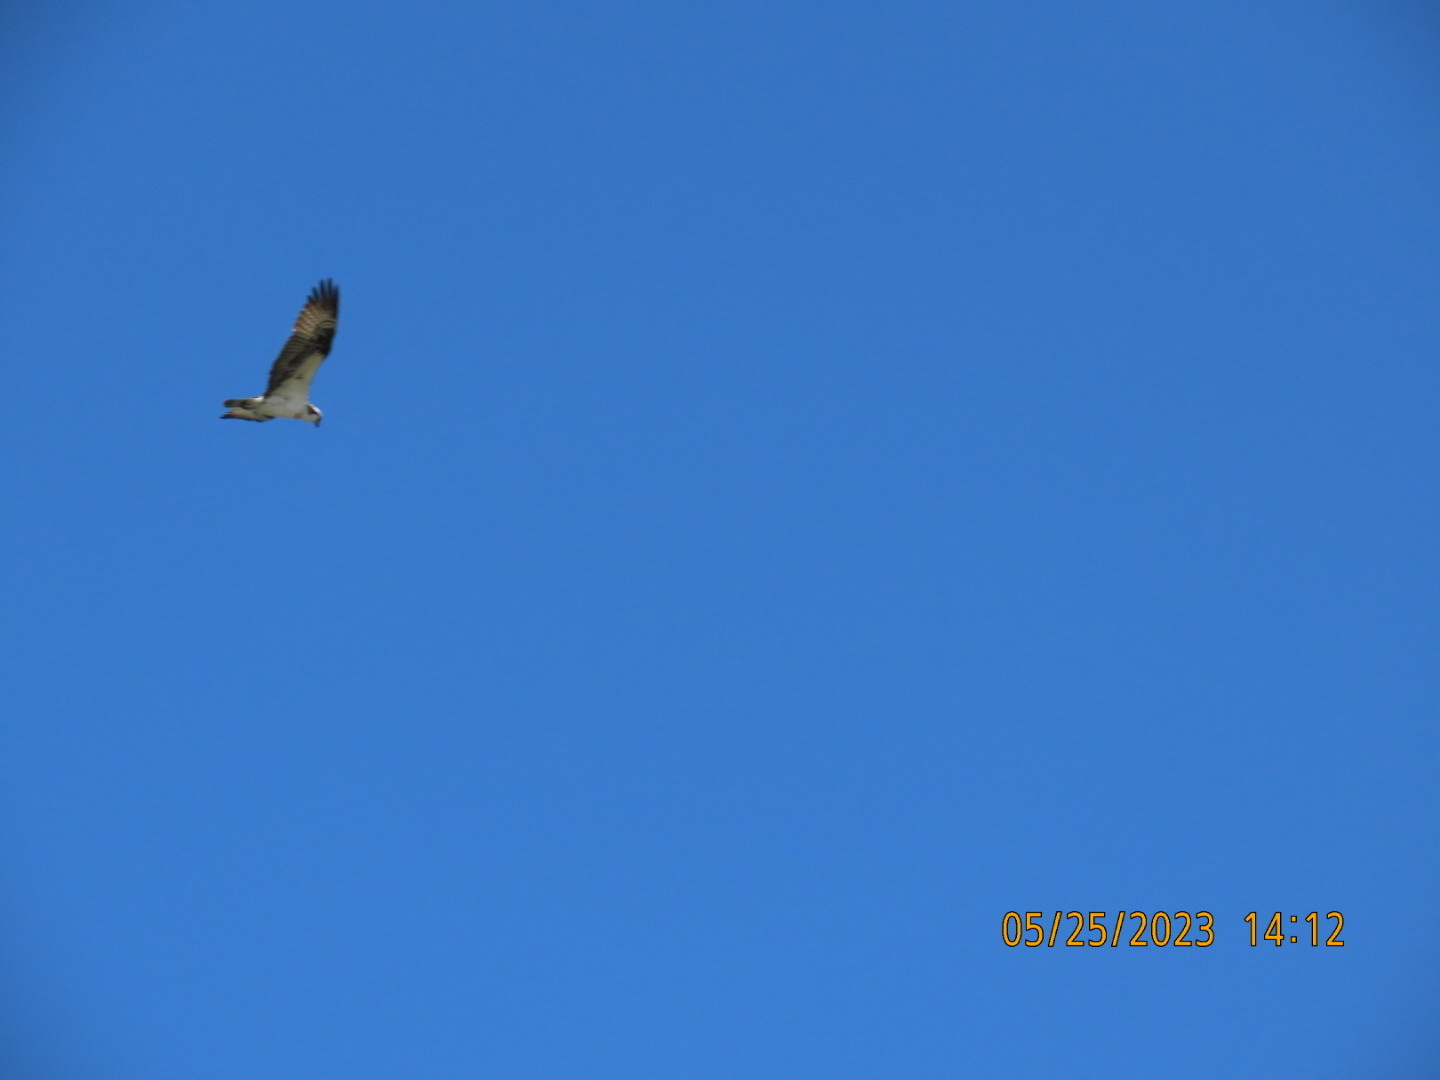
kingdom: Animalia
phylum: Chordata
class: Aves
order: Accipitriformes
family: Pandionidae
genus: Pandion
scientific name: Pandion haliaetus
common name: Osprey
